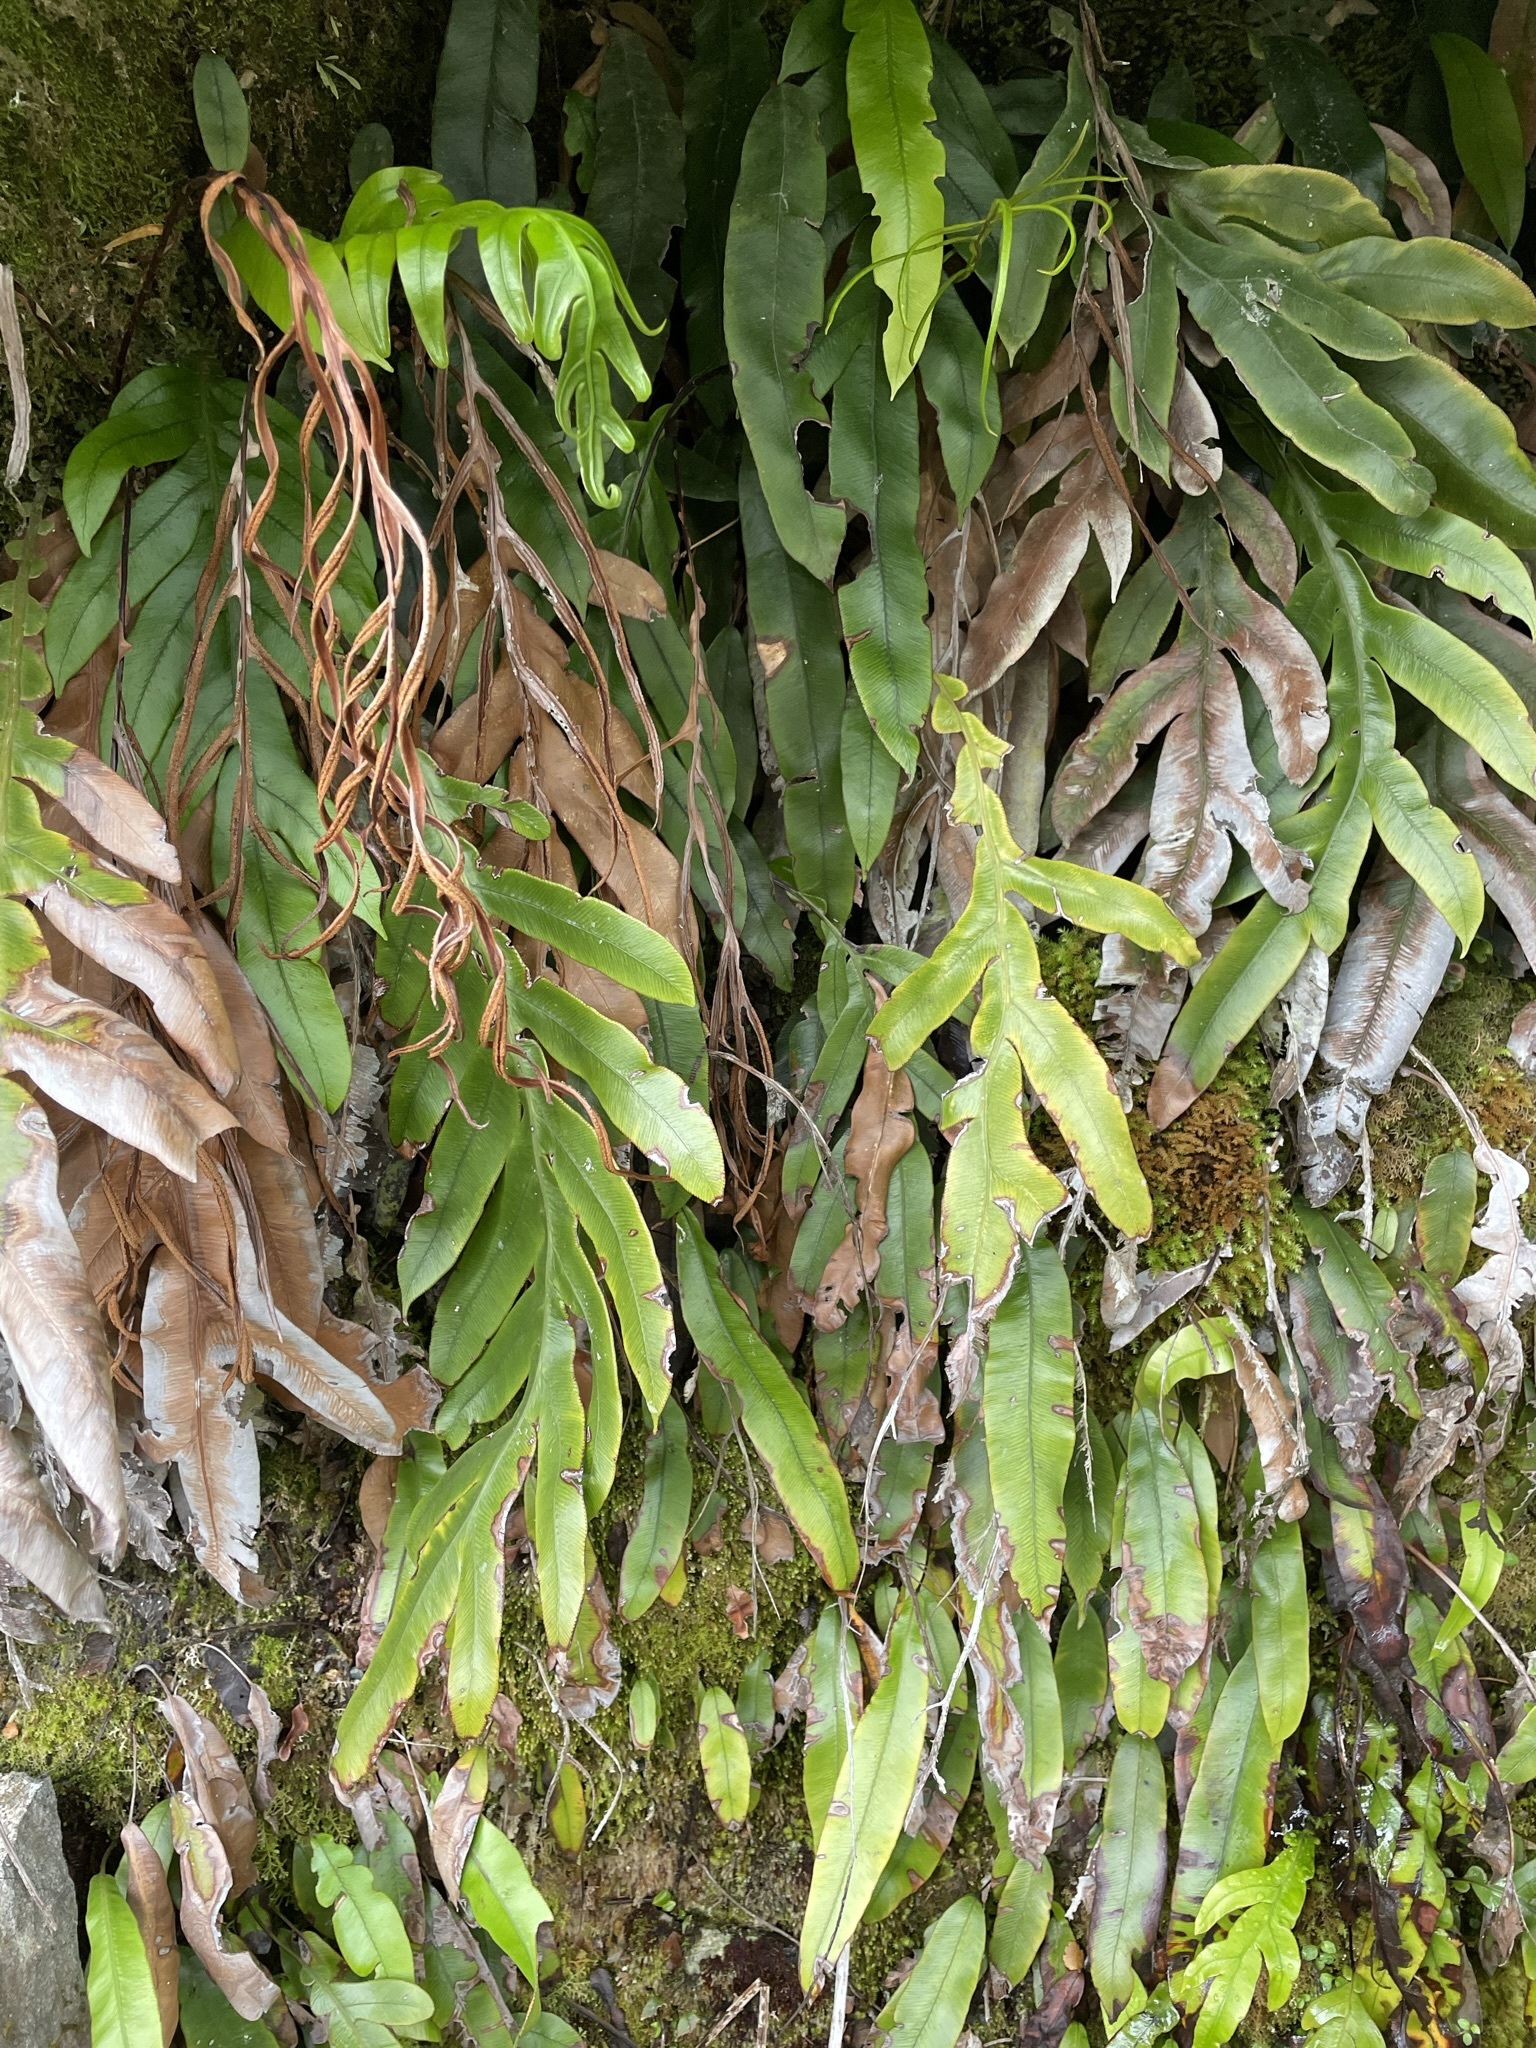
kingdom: Plantae
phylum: Tracheophyta
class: Polypodiopsida
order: Polypodiales
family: Blechnaceae
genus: Austroblechnum
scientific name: Austroblechnum colensoi
